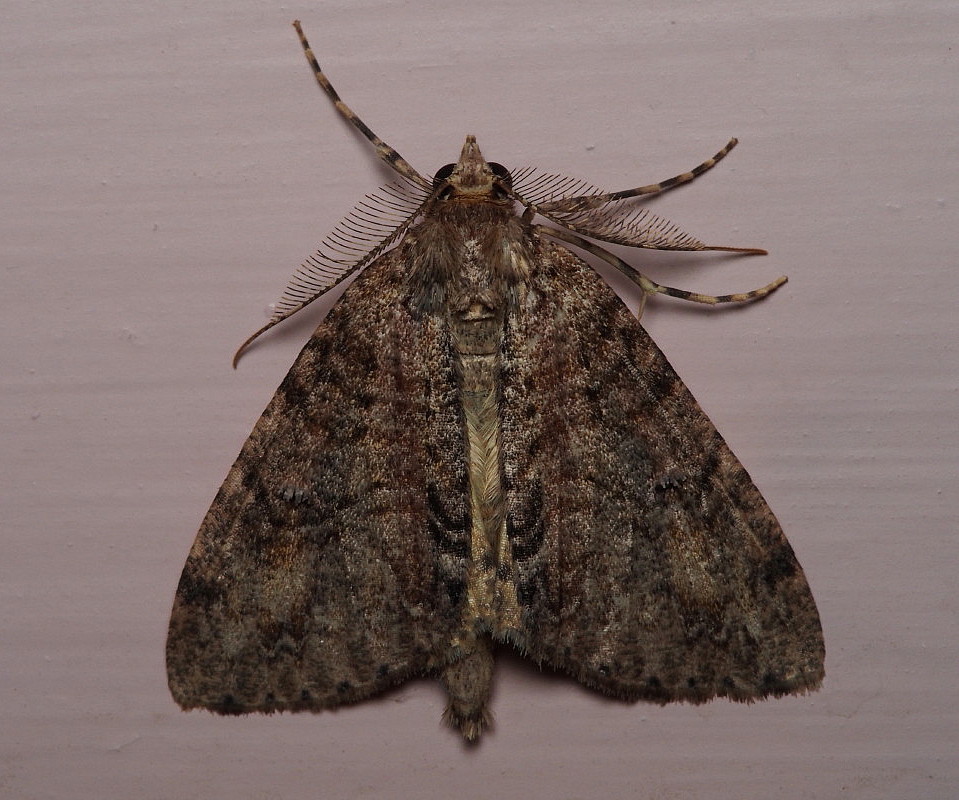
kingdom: Animalia
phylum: Arthropoda
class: Insecta
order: Lepidoptera
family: Geometridae
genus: Pseudocoremia
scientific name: Pseudocoremia suavis
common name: Common forest looper
